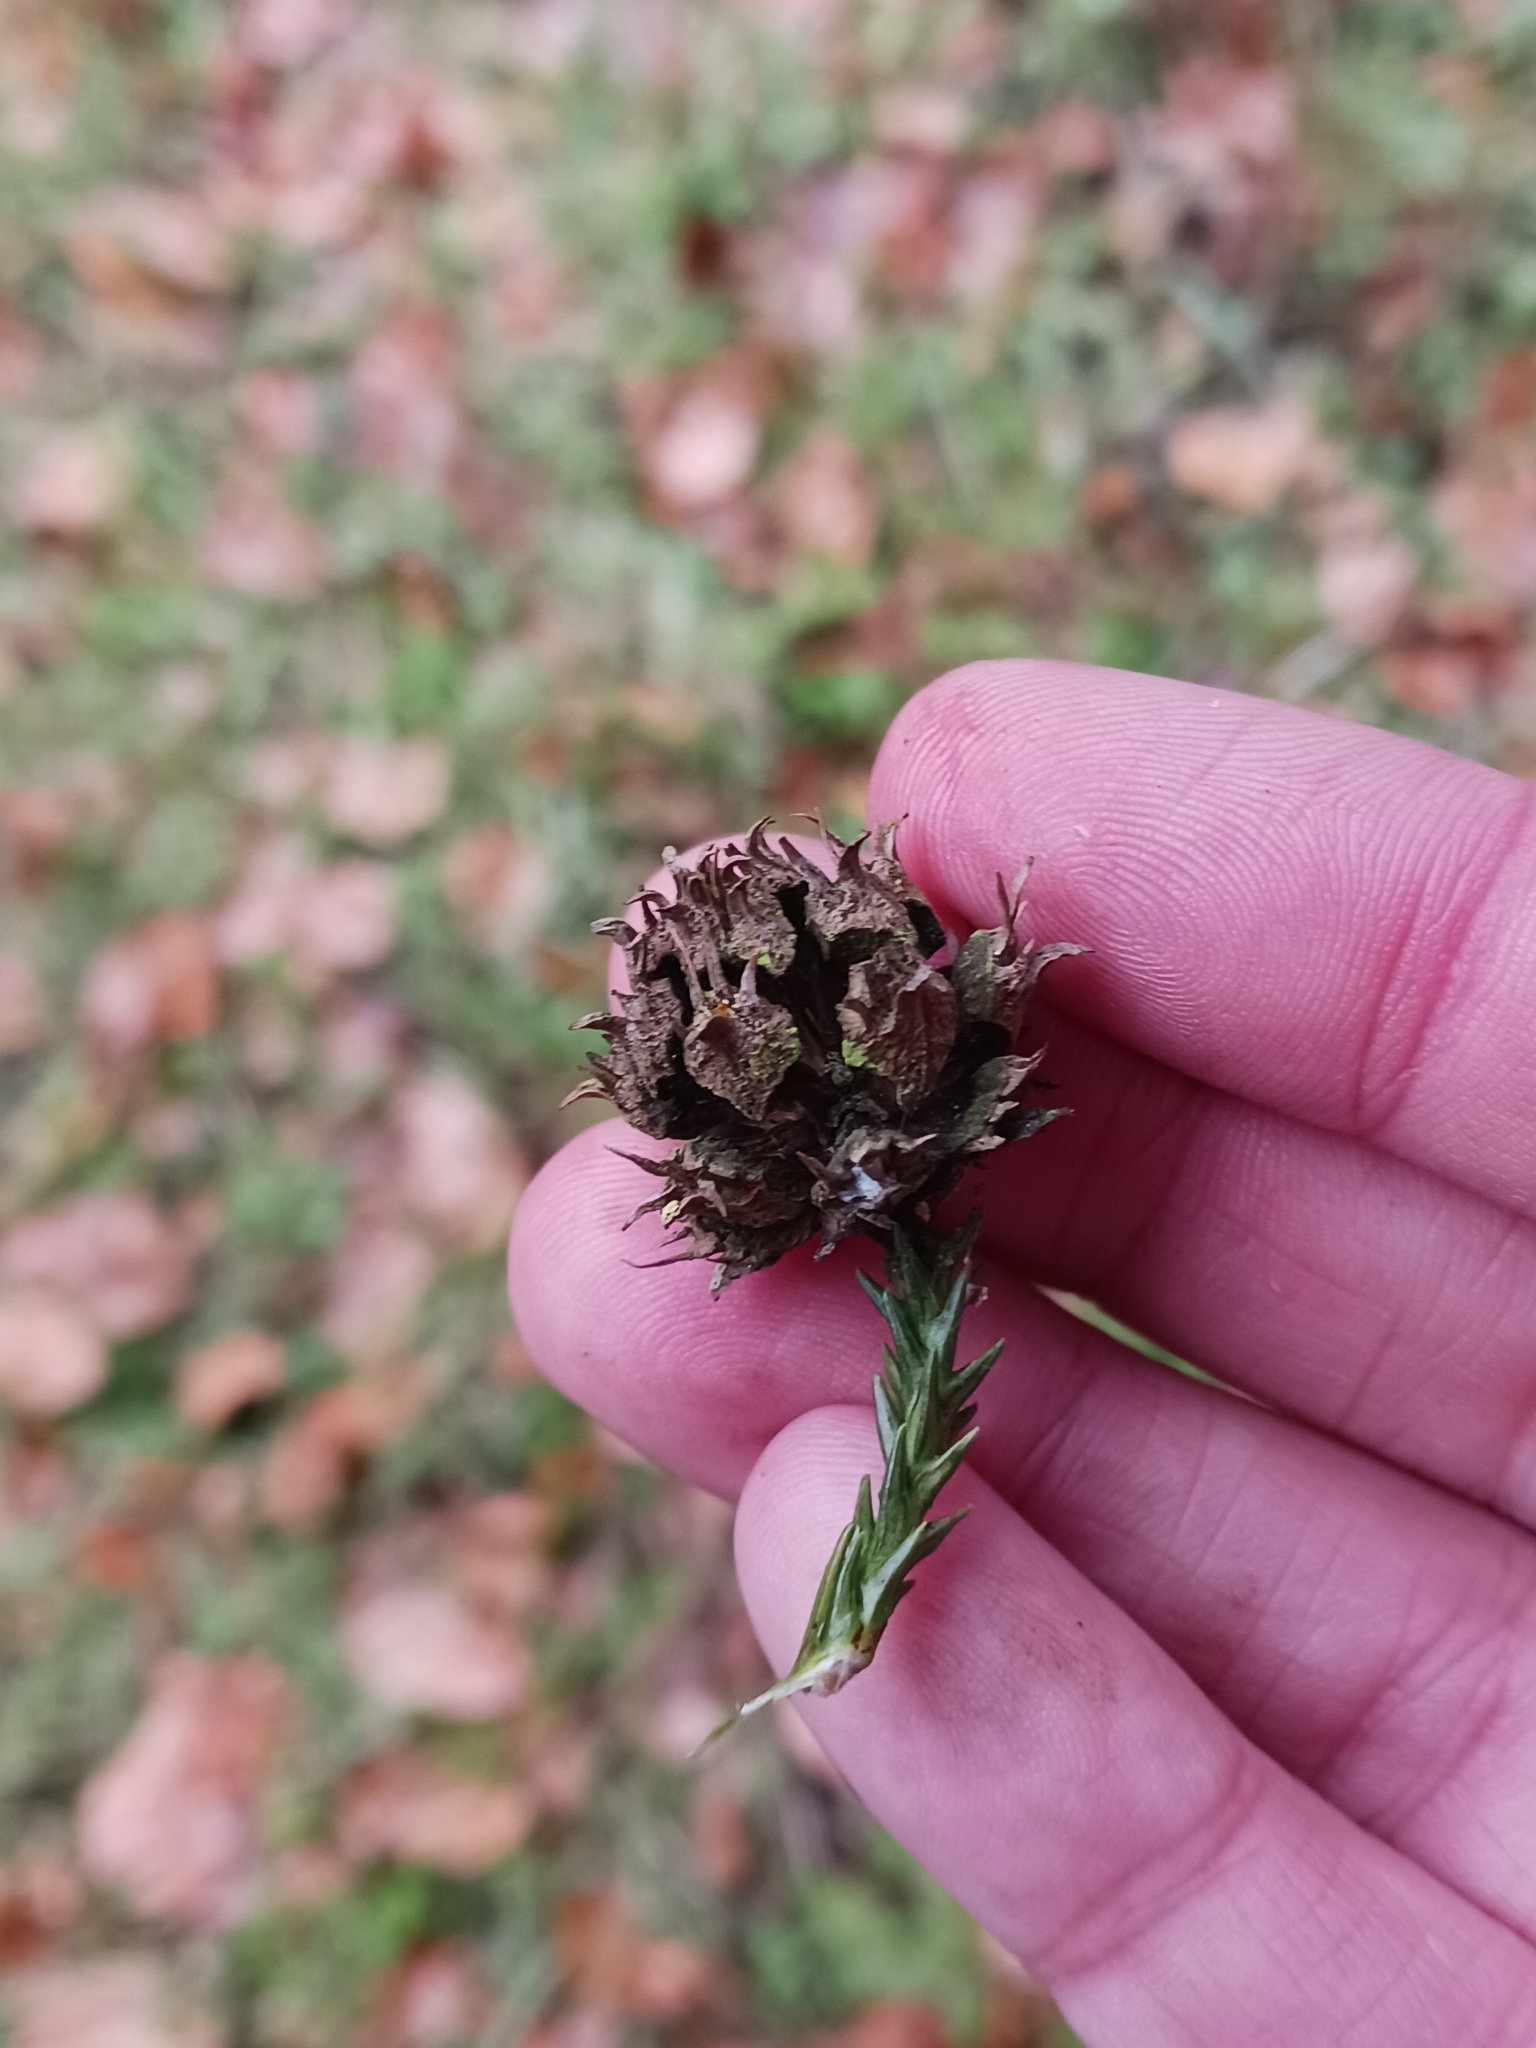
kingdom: Plantae
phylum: Tracheophyta
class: Pinopsida
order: Pinales
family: Cupressaceae
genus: Cryptomeria
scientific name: Cryptomeria japonica
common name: Japanese cedar
